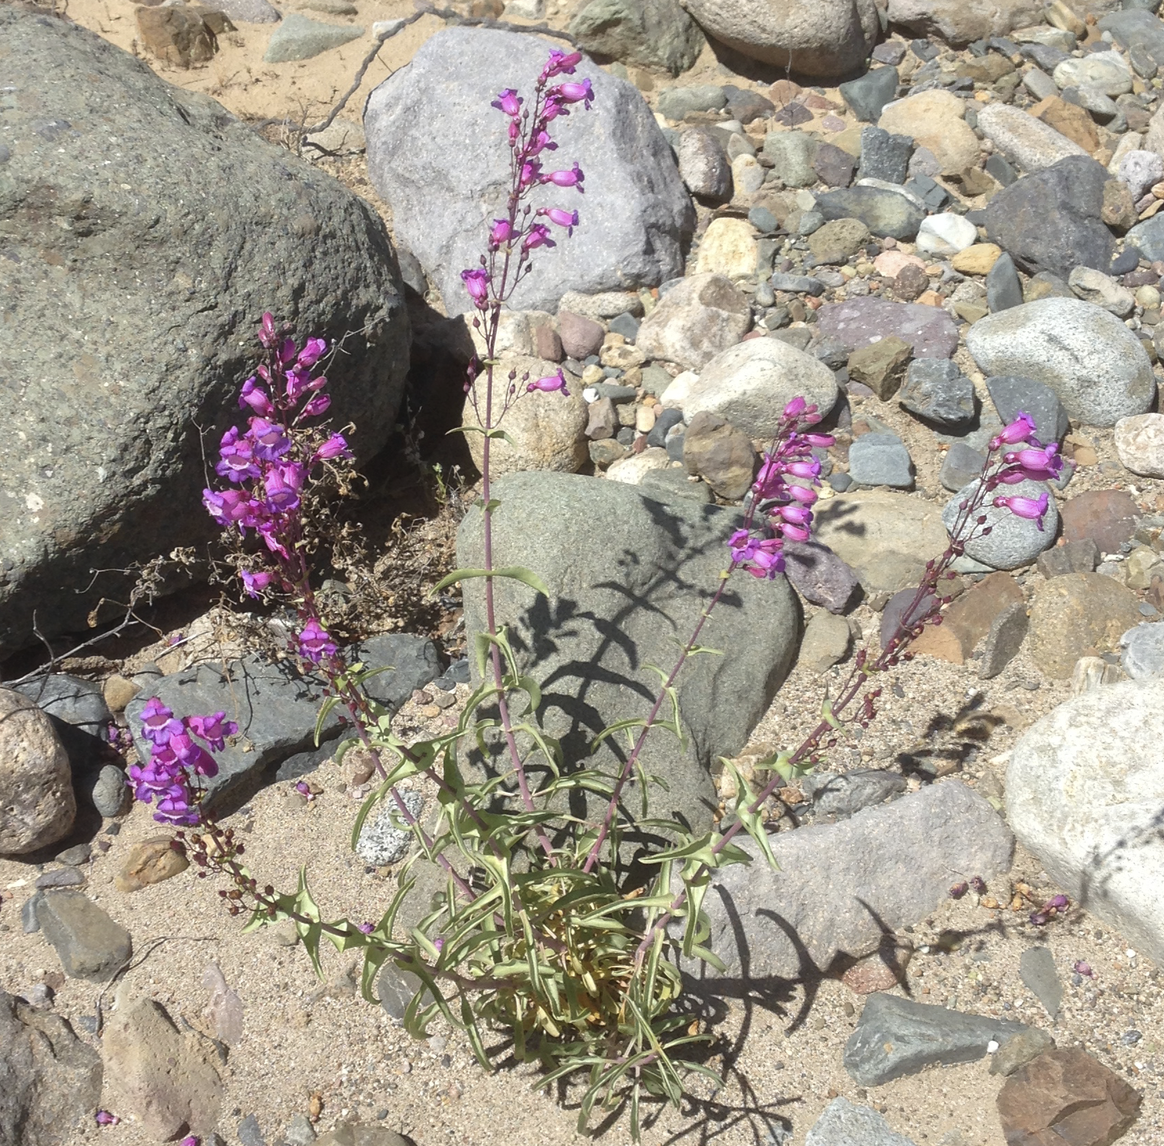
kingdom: Plantae
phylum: Tracheophyta
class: Magnoliopsida
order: Lamiales
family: Plantaginaceae
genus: Penstemon
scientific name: Penstemon spectabilis
